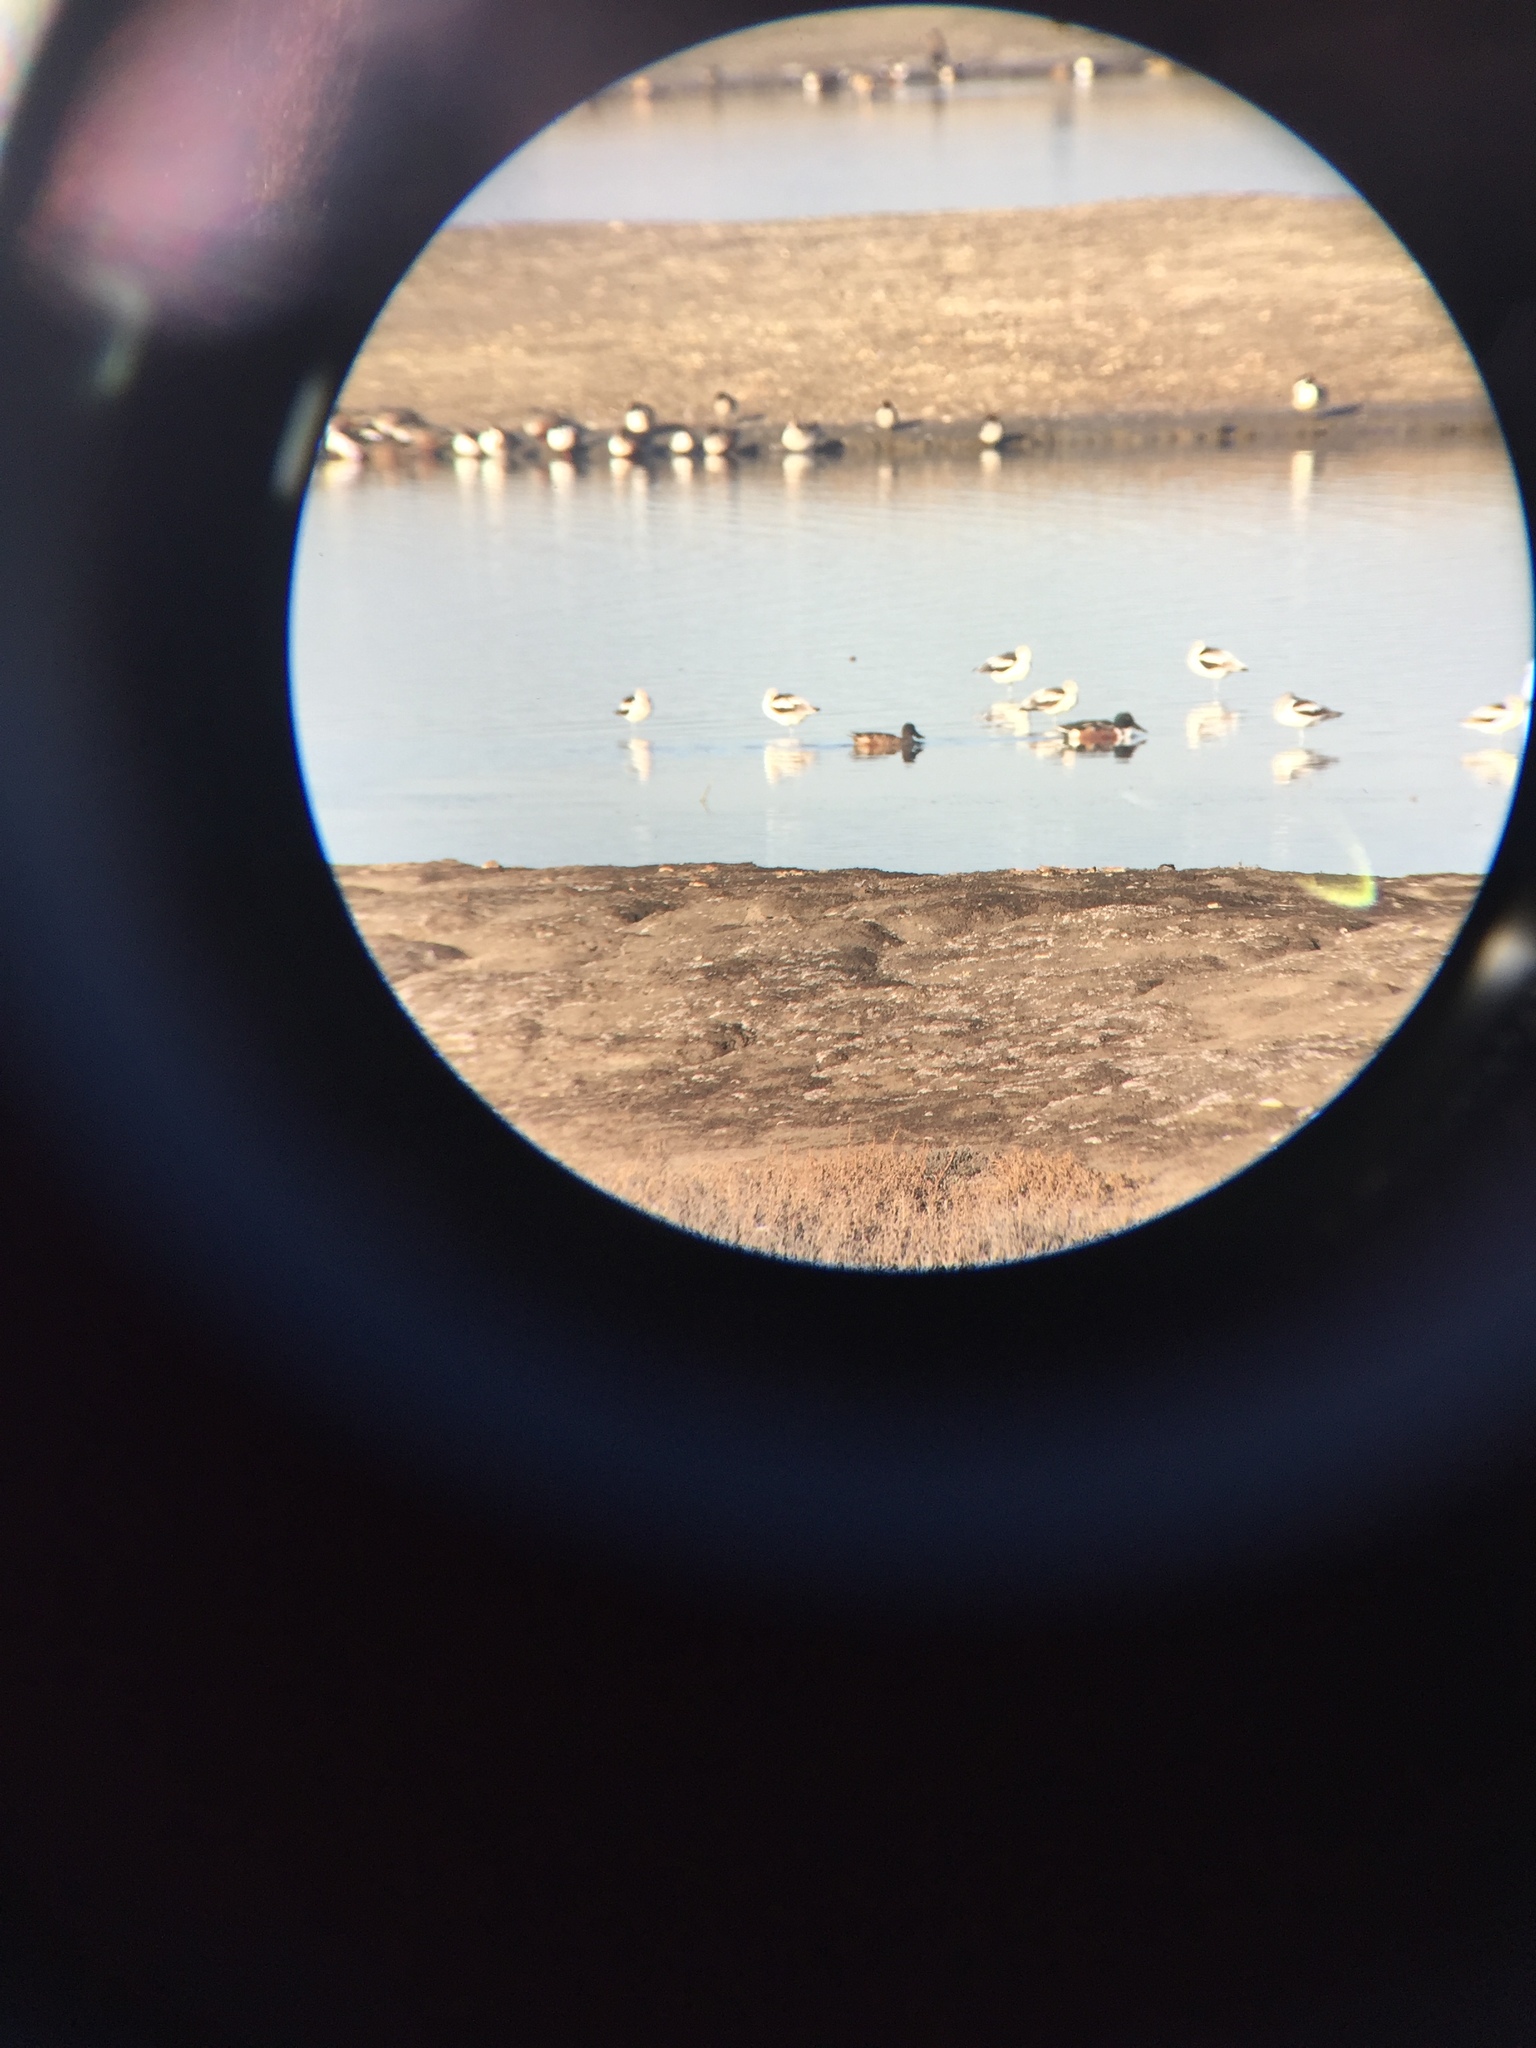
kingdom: Animalia
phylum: Chordata
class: Aves
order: Anseriformes
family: Anatidae
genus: Spatula
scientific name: Spatula clypeata
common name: Northern shoveler
